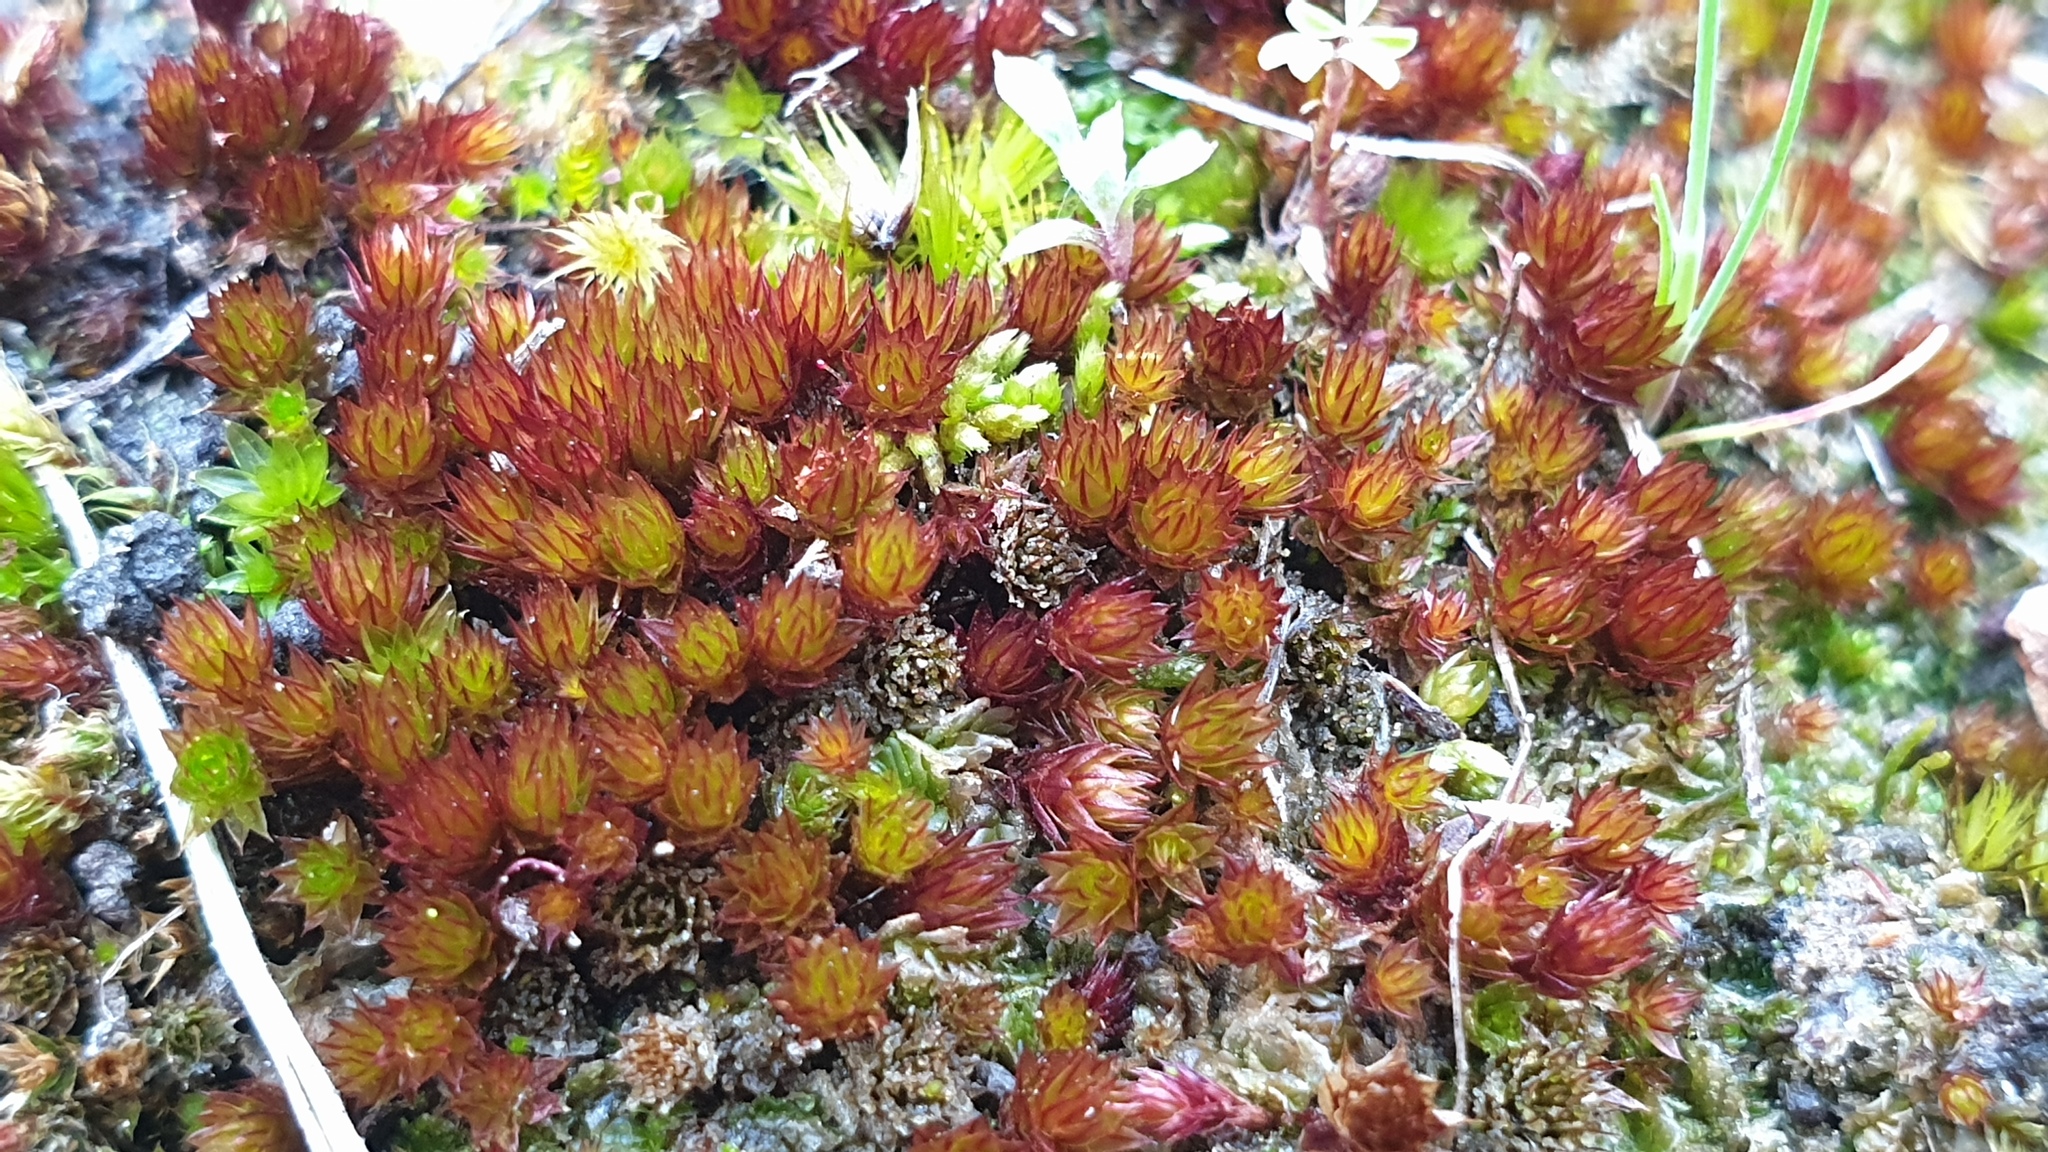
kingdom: Plantae
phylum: Bryophyta
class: Bryopsida
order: Bryales
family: Bryaceae
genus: Gemmabryum
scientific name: Gemmabryum caespiticium
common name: Handbell moss
